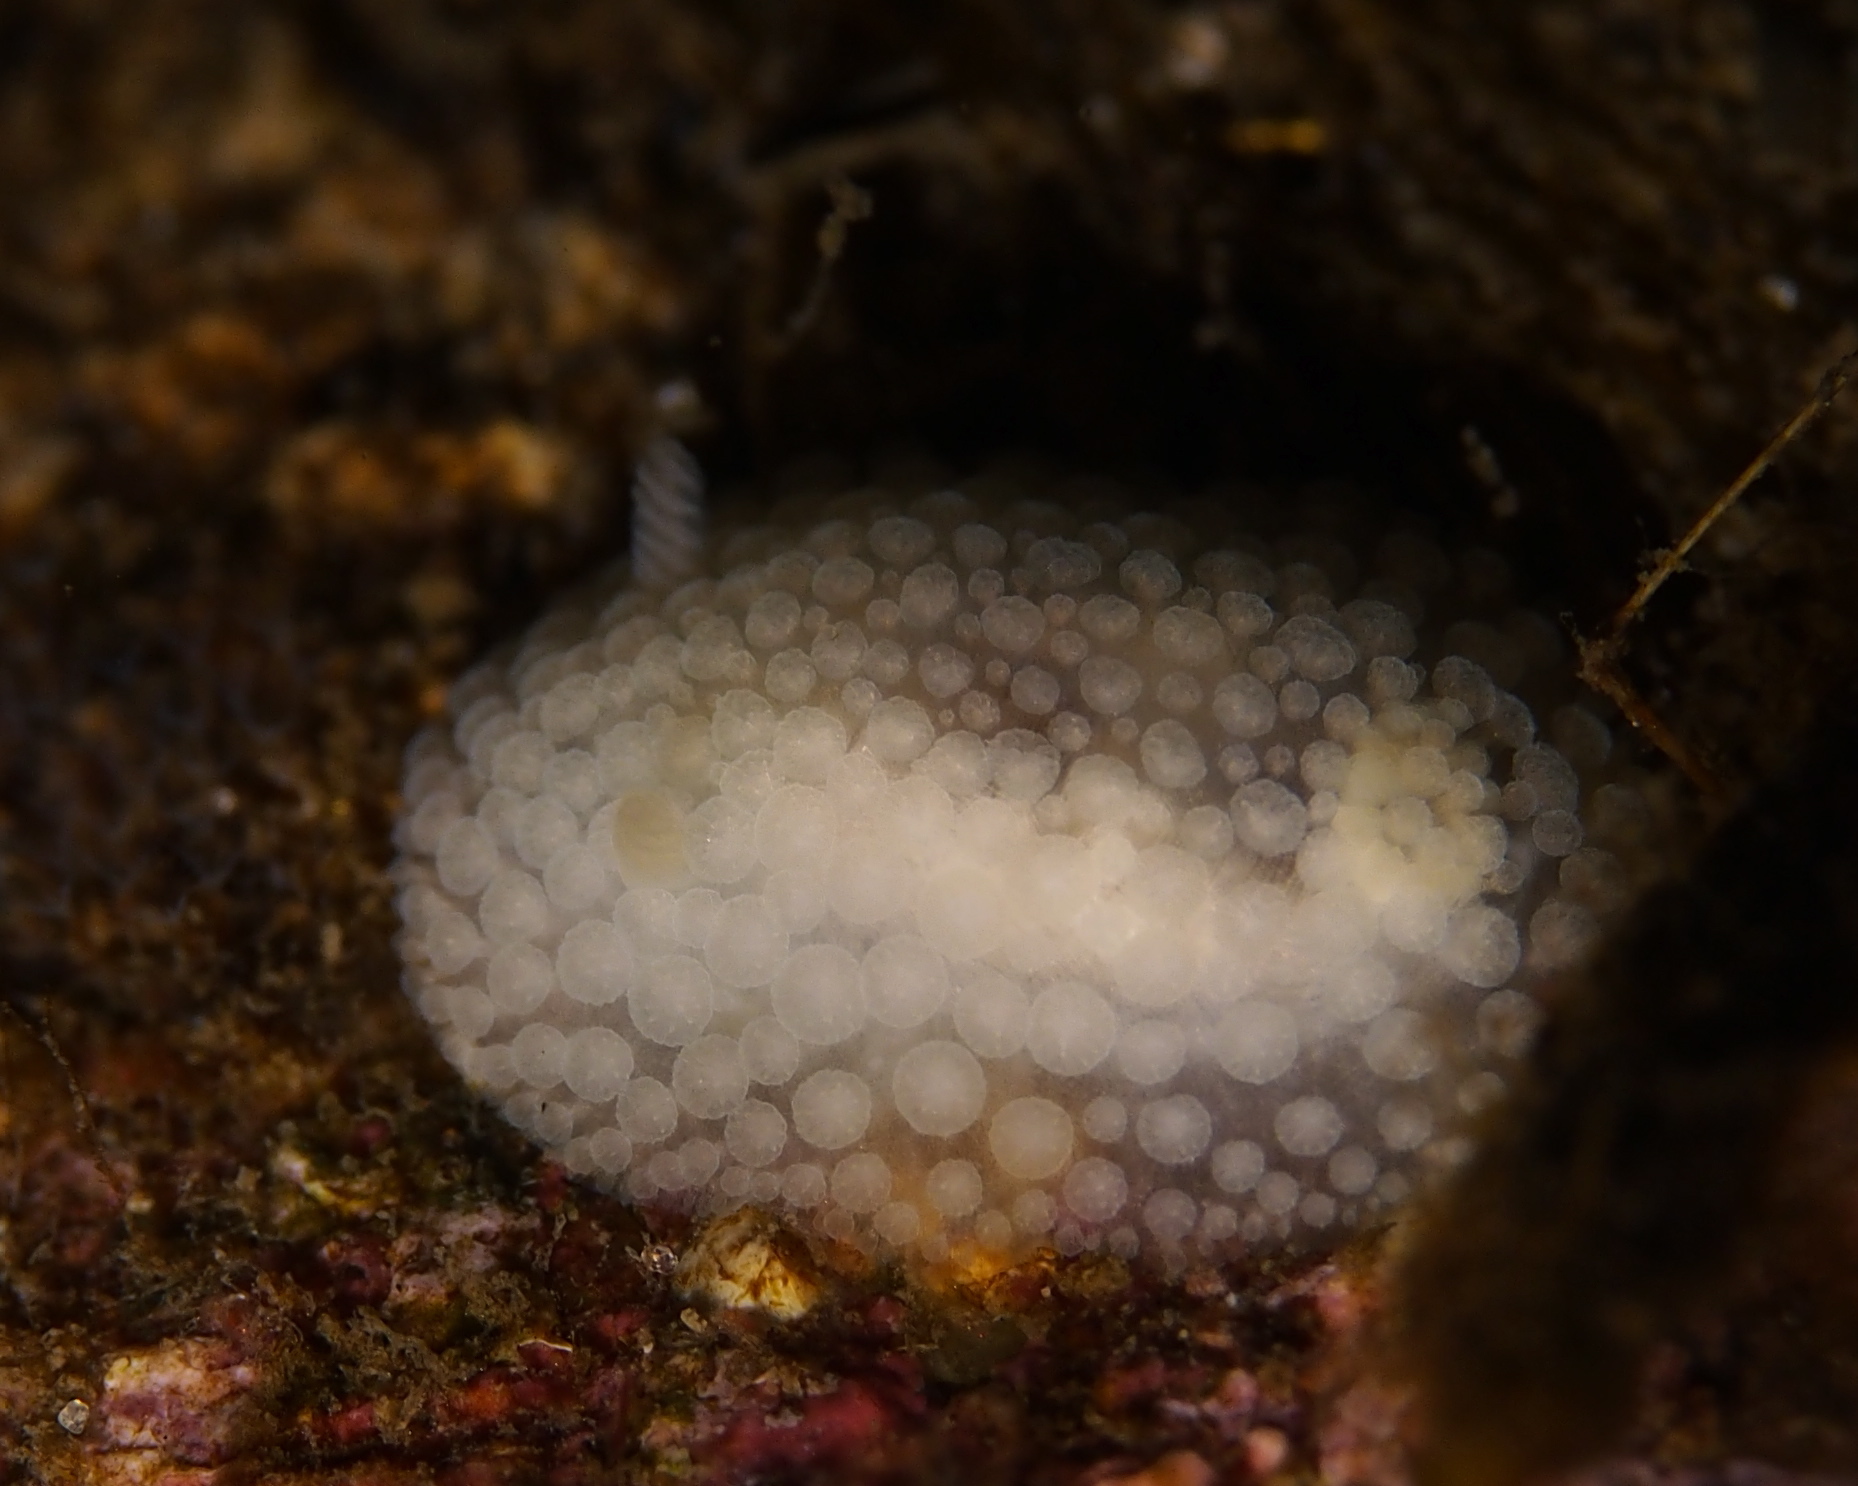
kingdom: Animalia
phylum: Mollusca
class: Gastropoda
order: Nudibranchia
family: Onchidorididae
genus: Onchidoris
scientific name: Onchidoris muricata
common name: Rough doris
